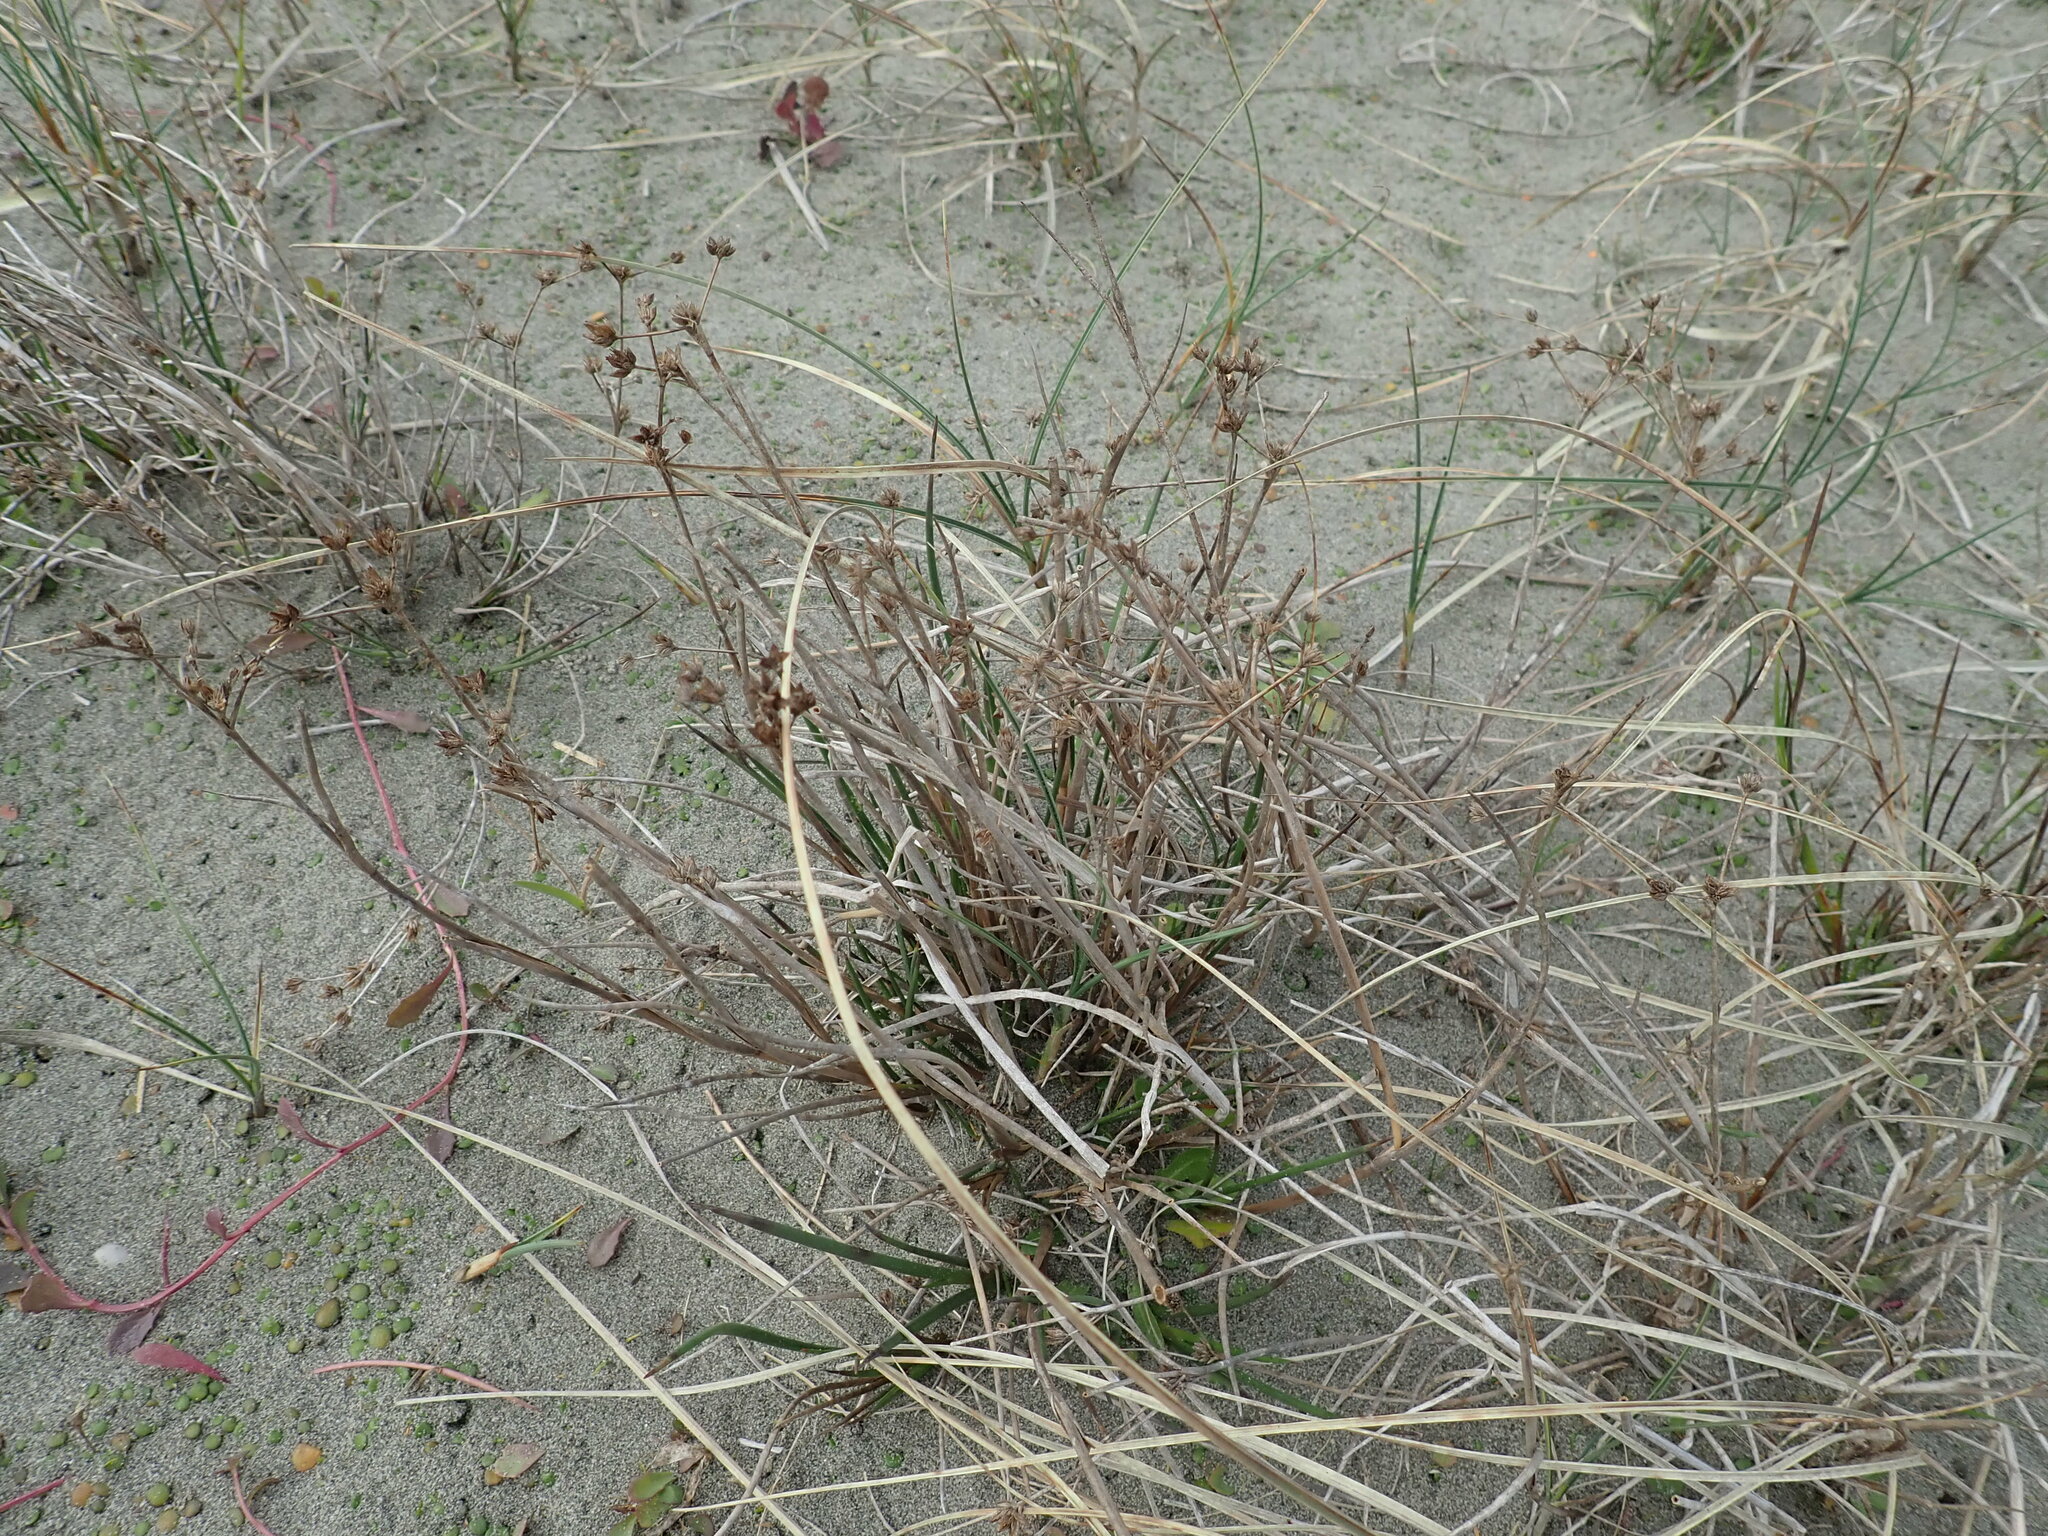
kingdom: Plantae
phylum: Tracheophyta
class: Liliopsida
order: Poales
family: Juncaceae
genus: Juncus
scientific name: Juncus articulatus
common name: Jointed rush
